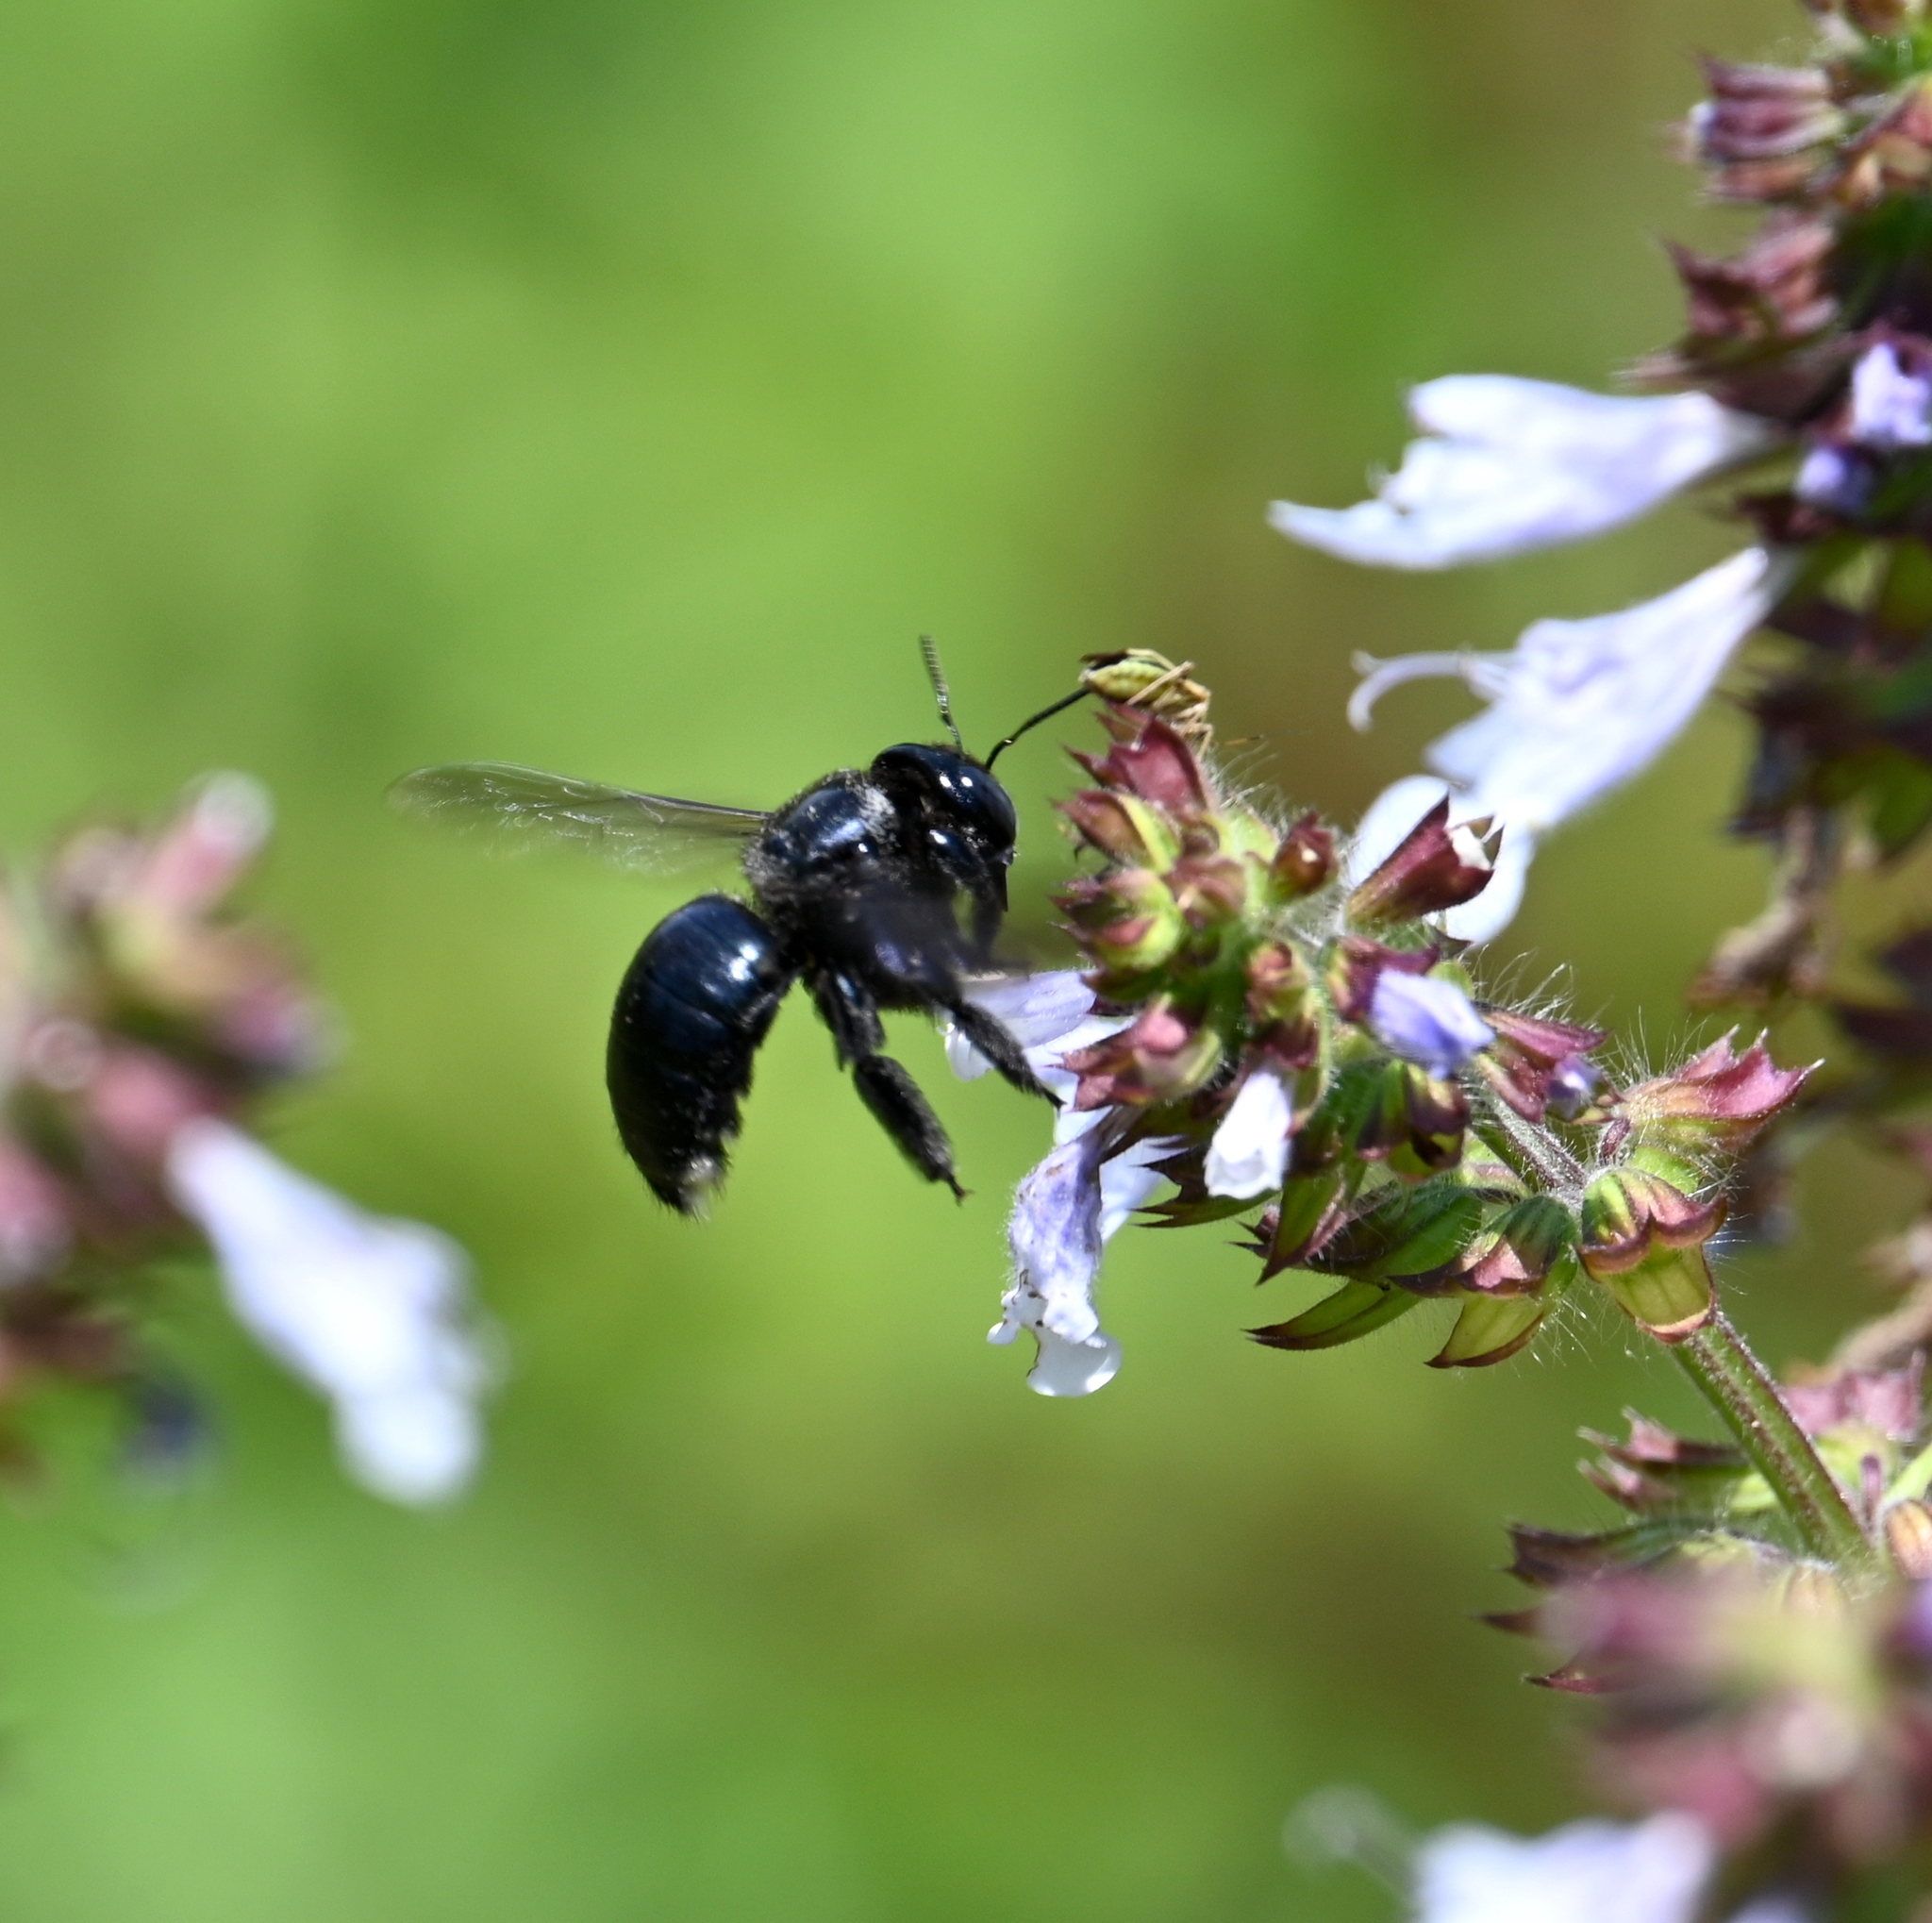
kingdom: Animalia
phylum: Arthropoda
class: Insecta
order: Hymenoptera
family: Apidae
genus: Xylocopa
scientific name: Xylocopa micans
